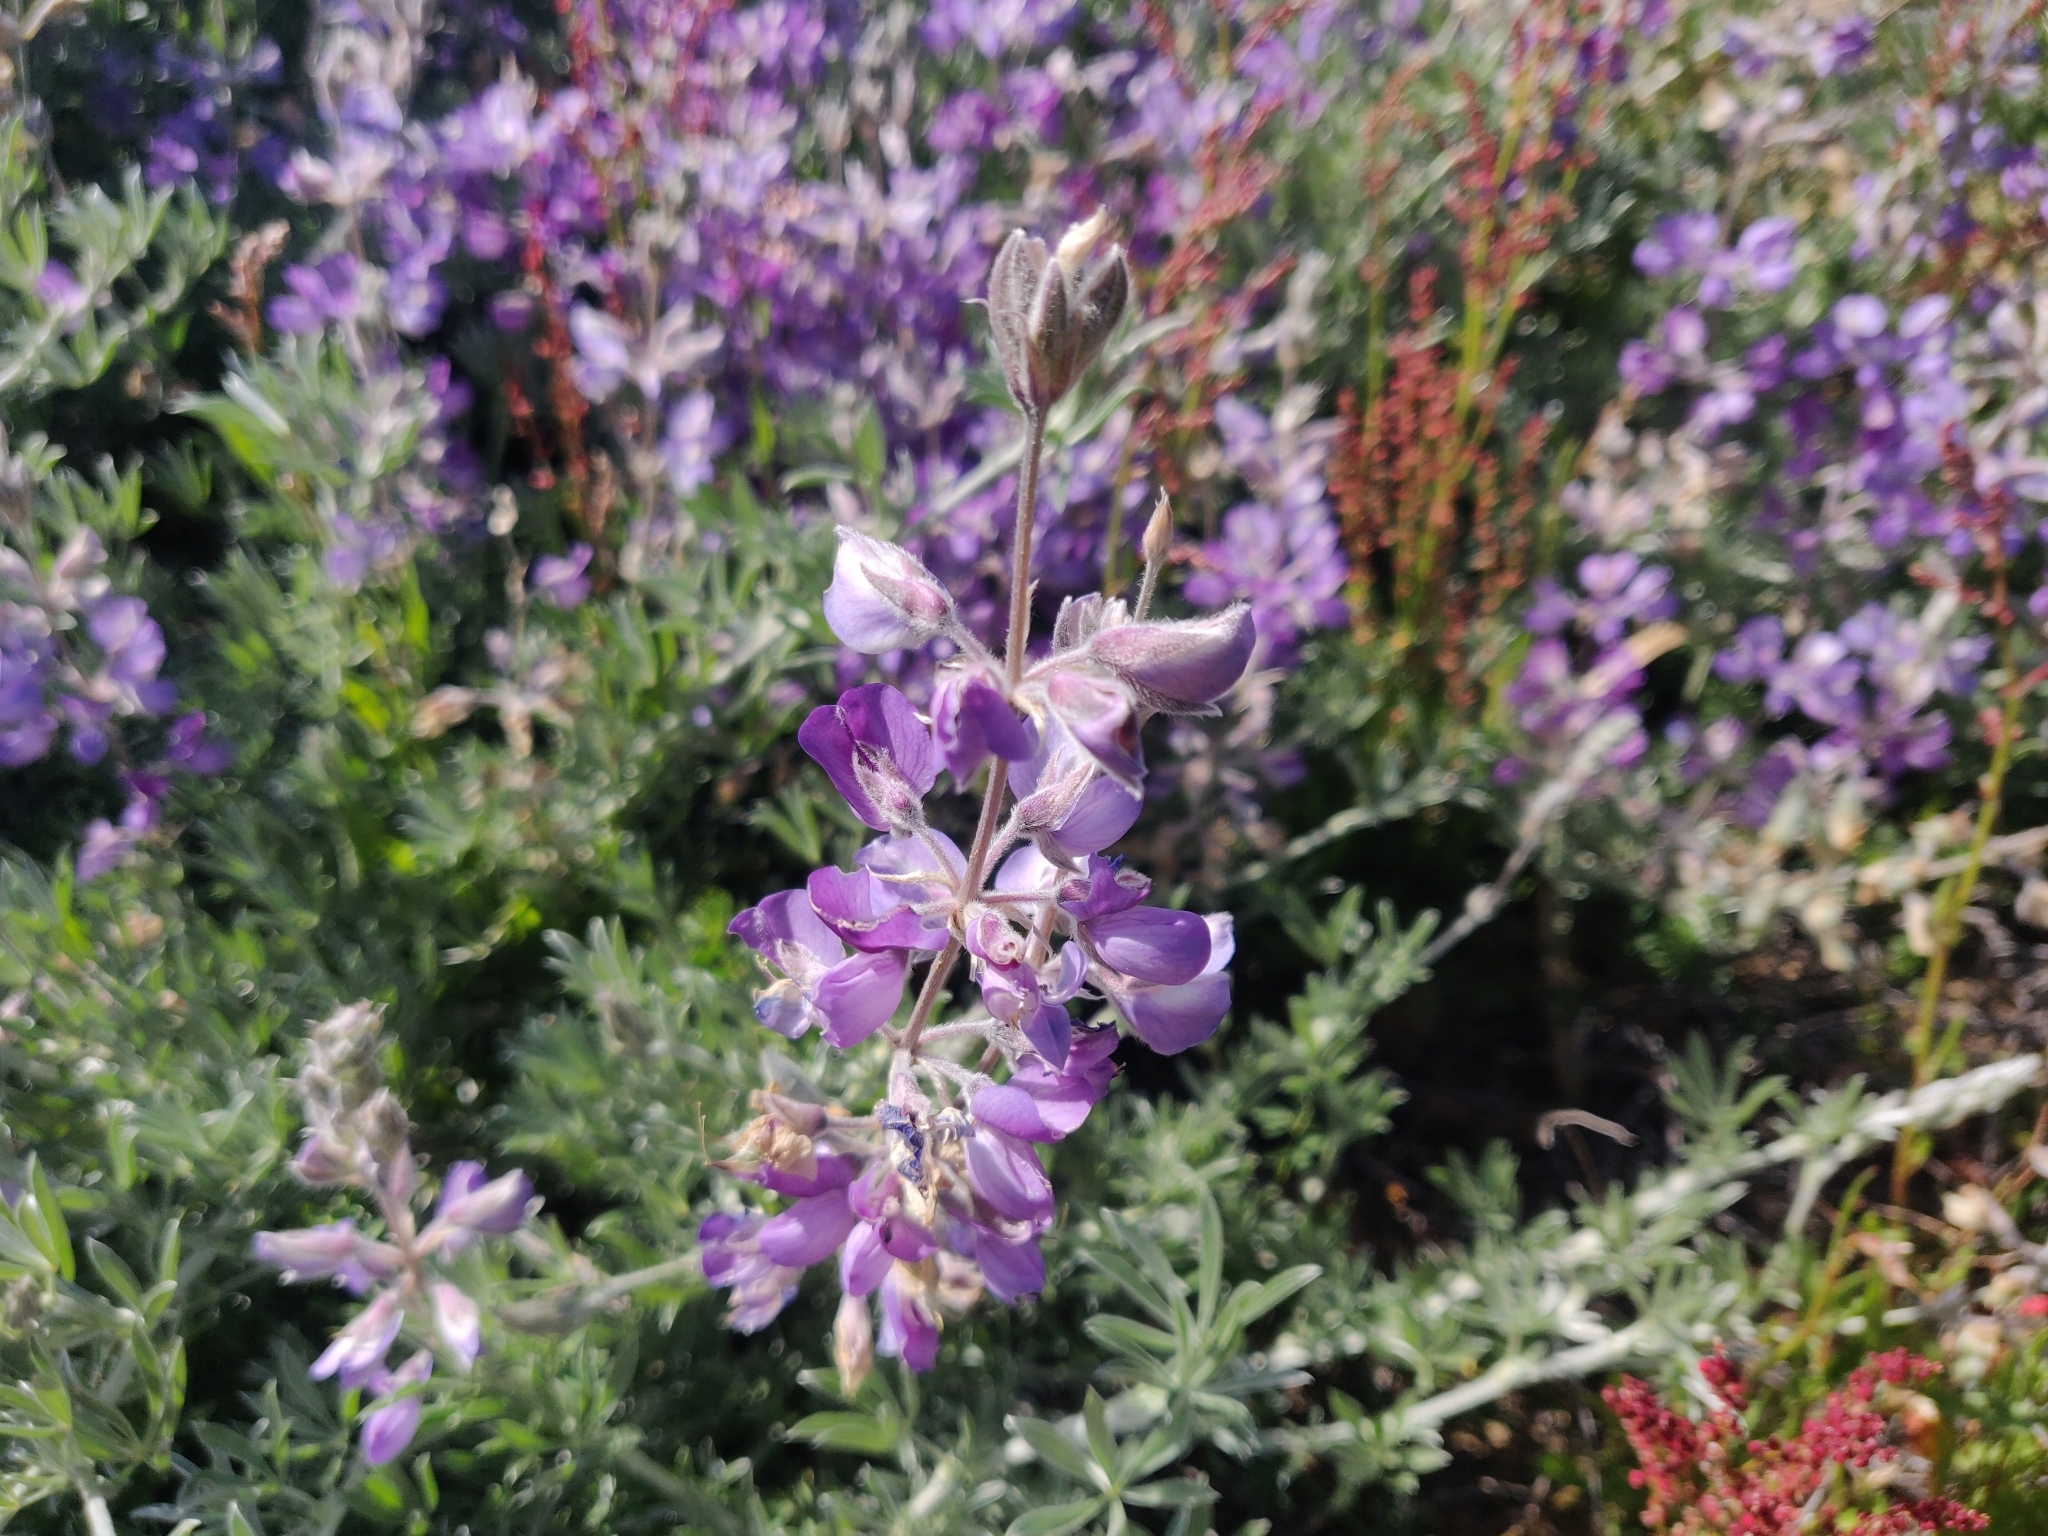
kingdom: Plantae
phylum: Tracheophyta
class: Magnoliopsida
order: Fabales
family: Fabaceae
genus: Lupinus
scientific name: Lupinus chamissonis
